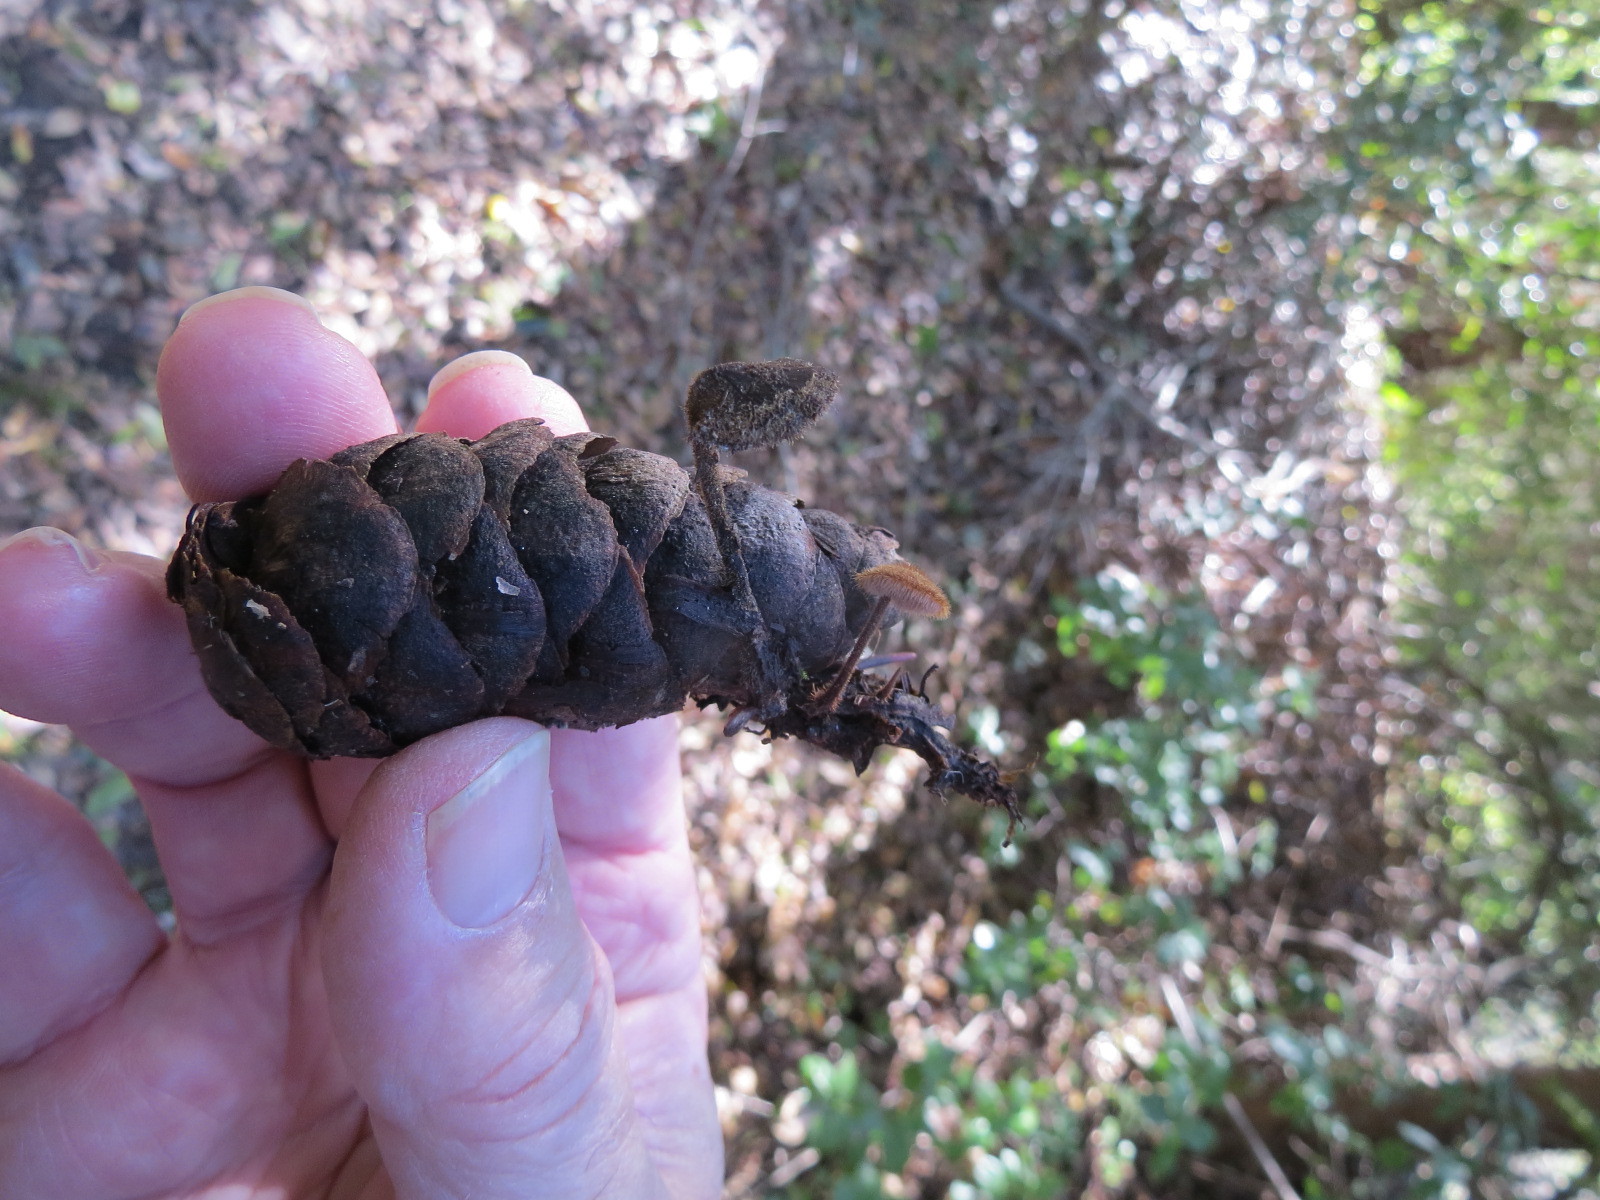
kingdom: Fungi
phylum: Basidiomycota
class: Agaricomycetes
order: Russulales
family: Auriscalpiaceae
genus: Auriscalpium
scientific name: Auriscalpium vulgare
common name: Earpick fungus
